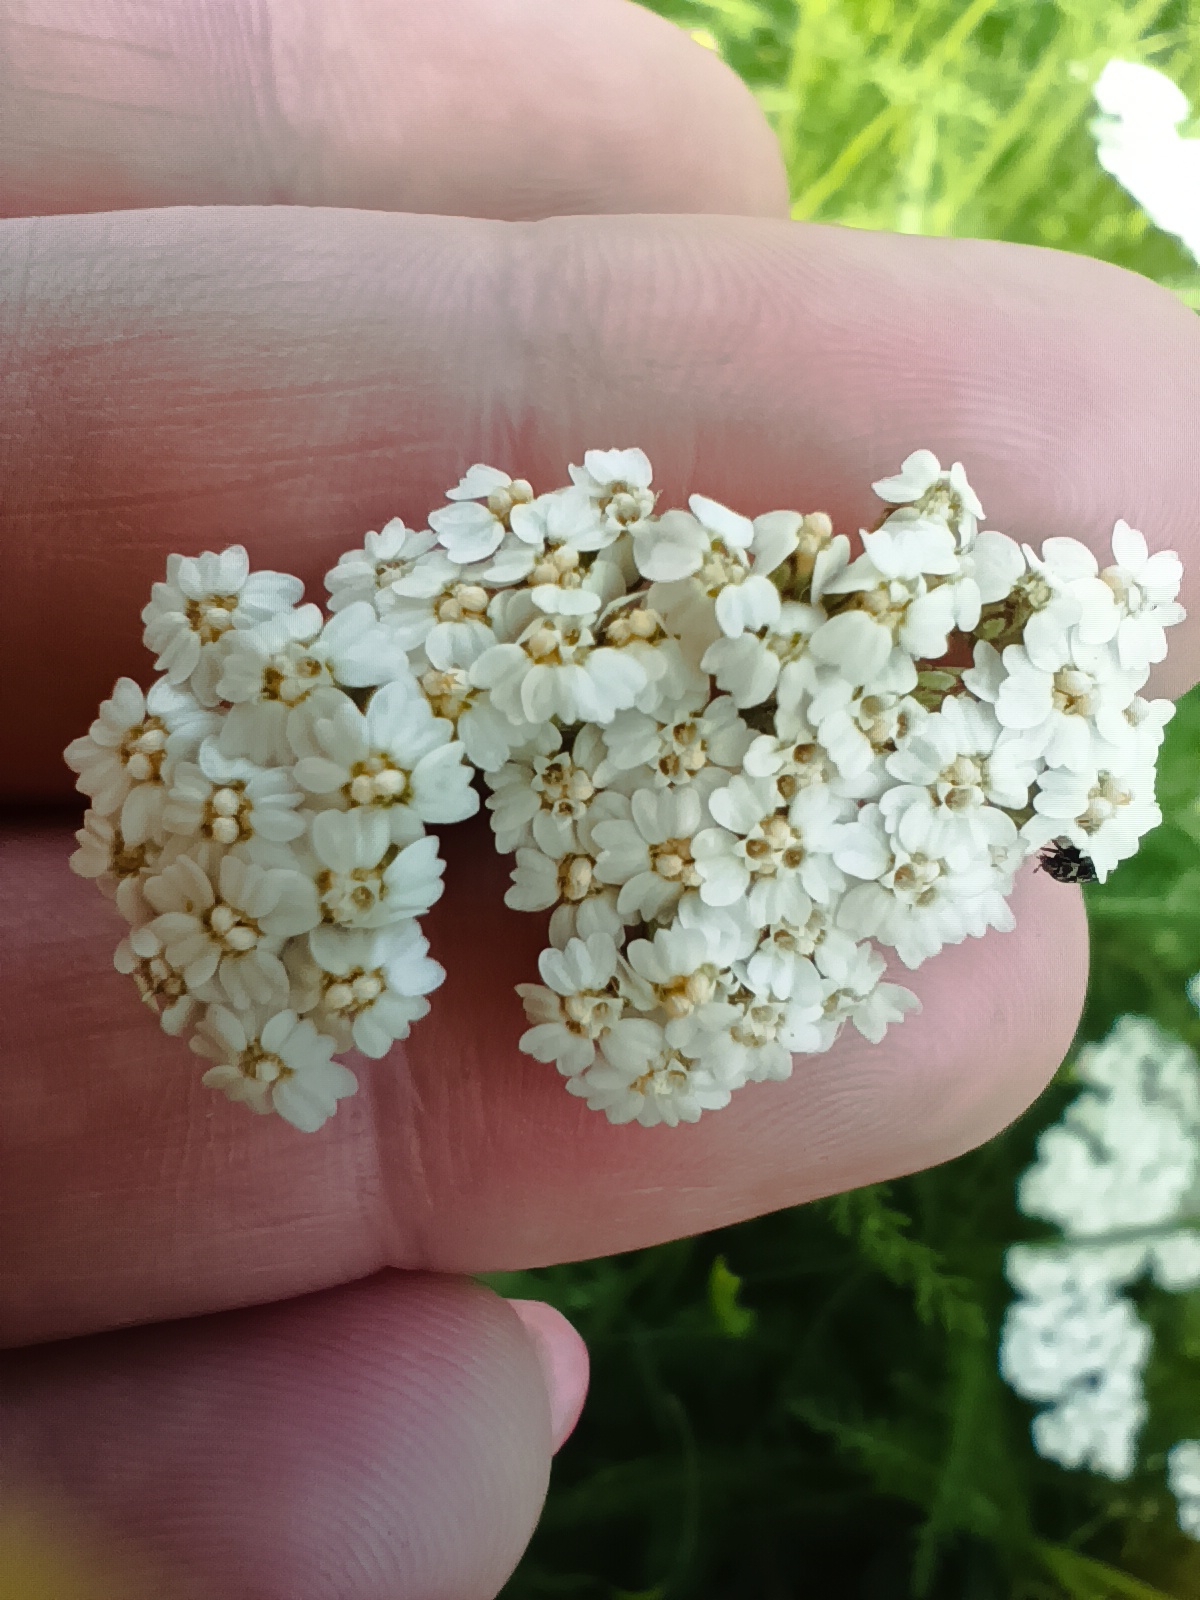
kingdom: Plantae
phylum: Tracheophyta
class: Magnoliopsida
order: Asterales
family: Asteraceae
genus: Achillea
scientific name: Achillea millefolium
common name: Yarrow
